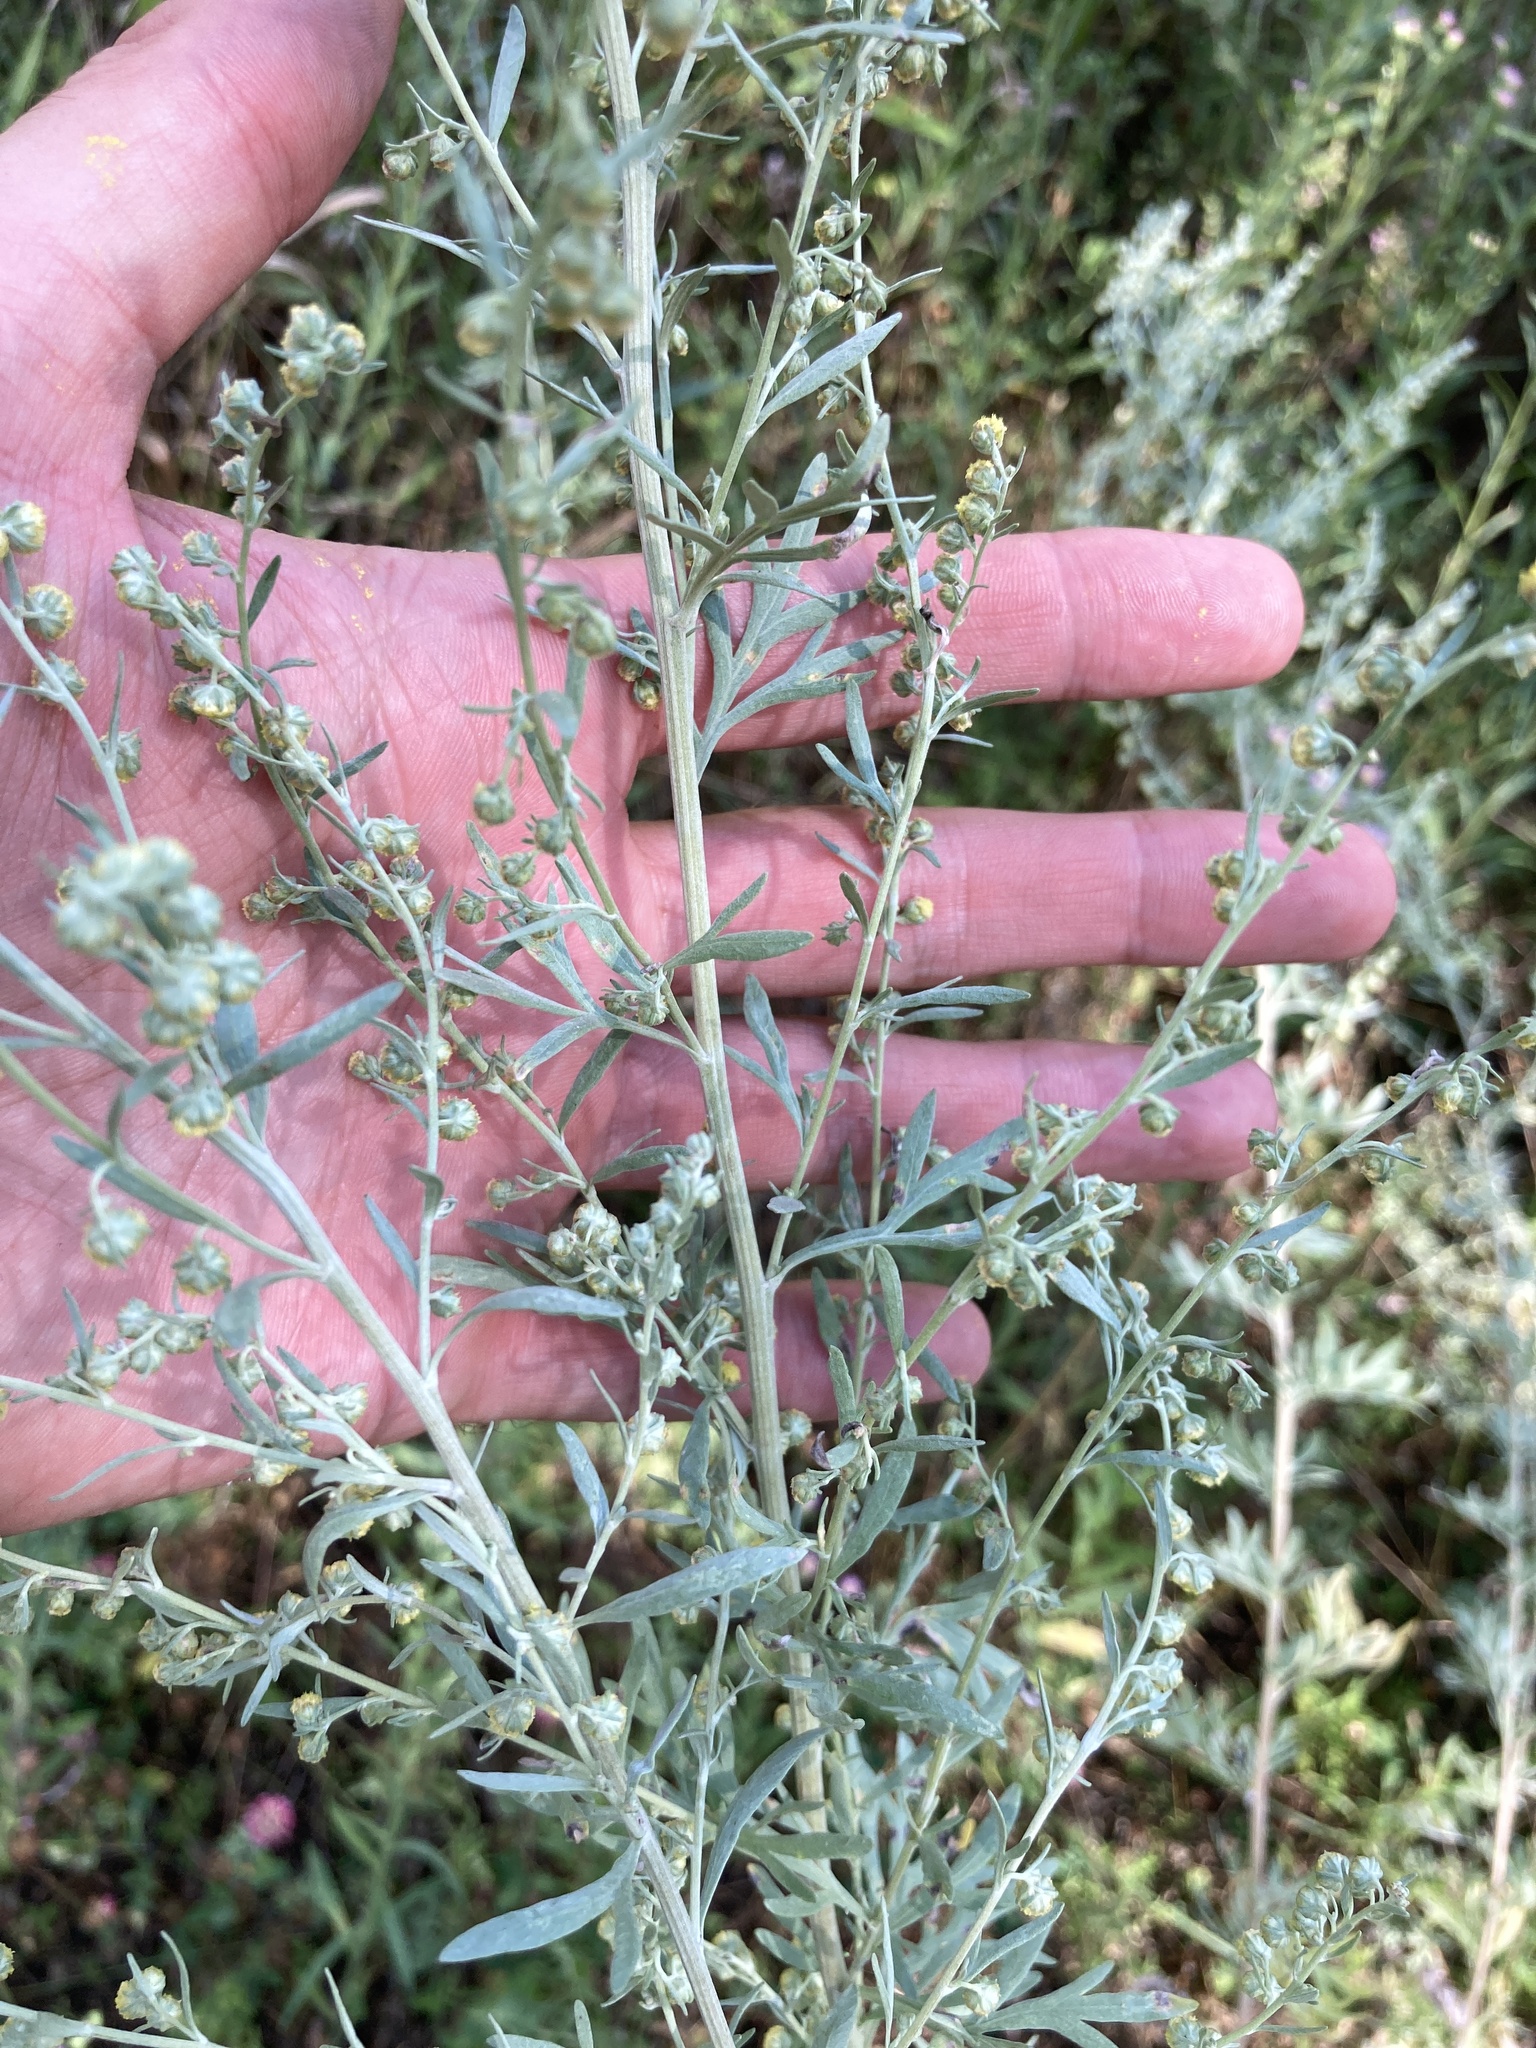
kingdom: Plantae
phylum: Tracheophyta
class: Magnoliopsida
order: Asterales
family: Asteraceae
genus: Artemisia
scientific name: Artemisia absinthium
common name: Wormwood
